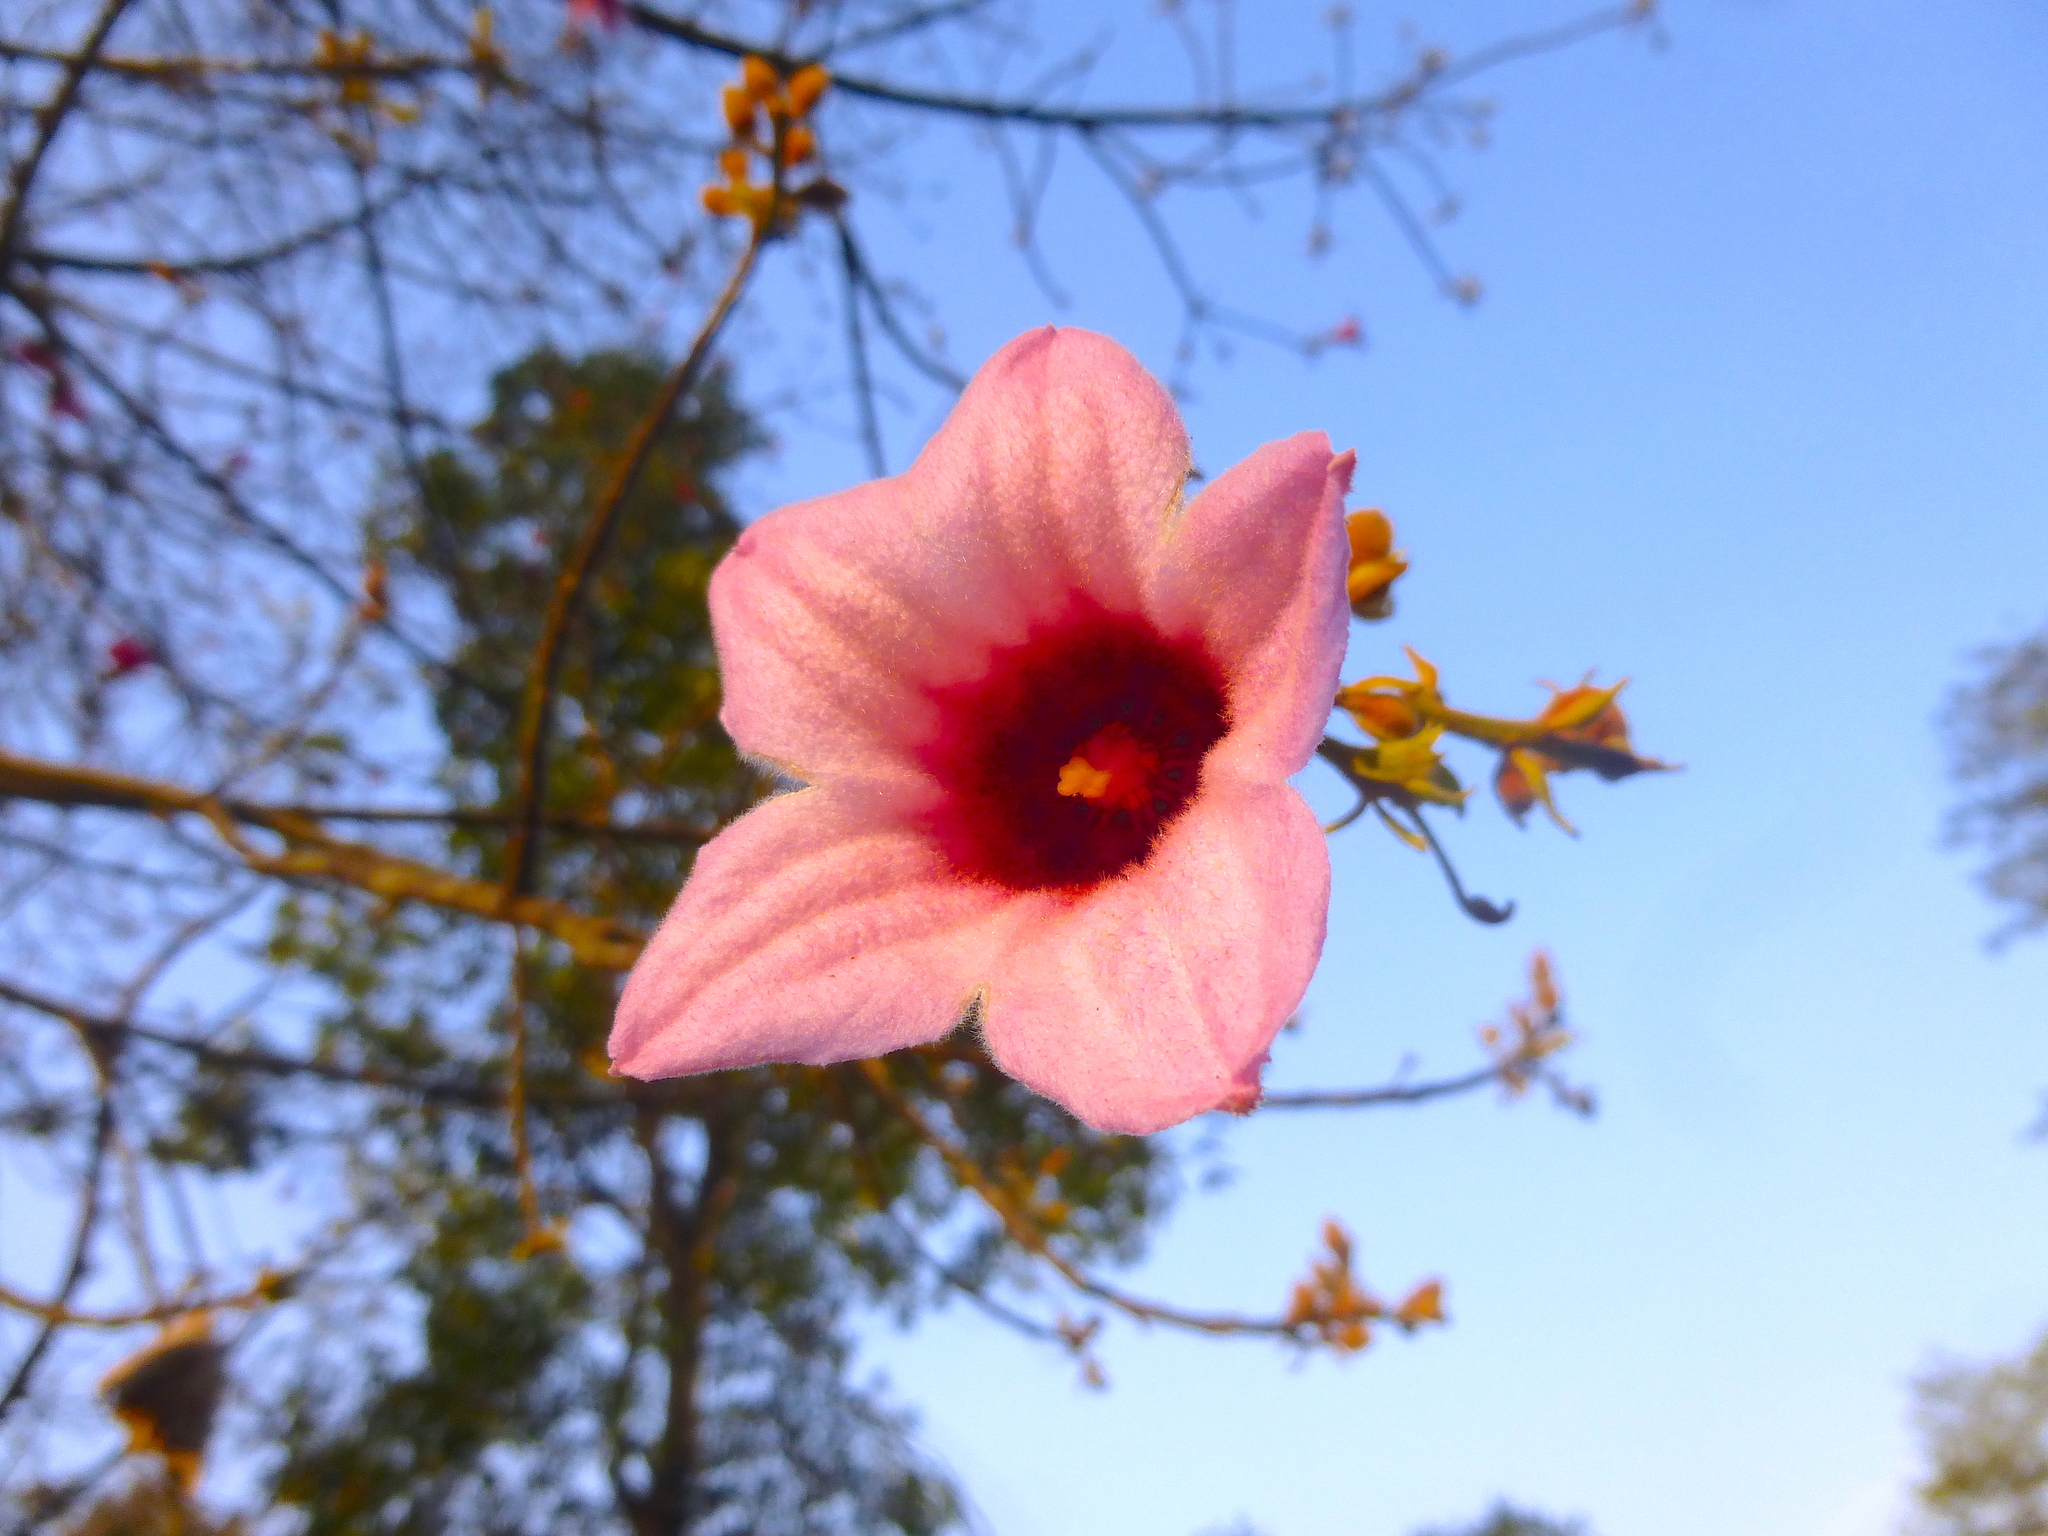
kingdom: Plantae
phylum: Tracheophyta
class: Magnoliopsida
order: Malvales
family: Malvaceae
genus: Brachychiton
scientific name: Brachychiton discolor
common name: Queensland lacebark
